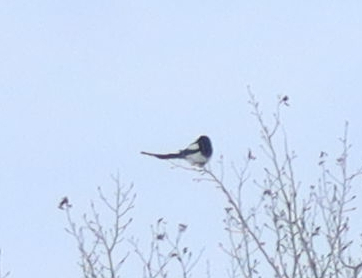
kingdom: Animalia
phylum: Chordata
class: Aves
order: Passeriformes
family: Corvidae
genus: Pica
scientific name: Pica hudsonia
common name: Black-billed magpie
